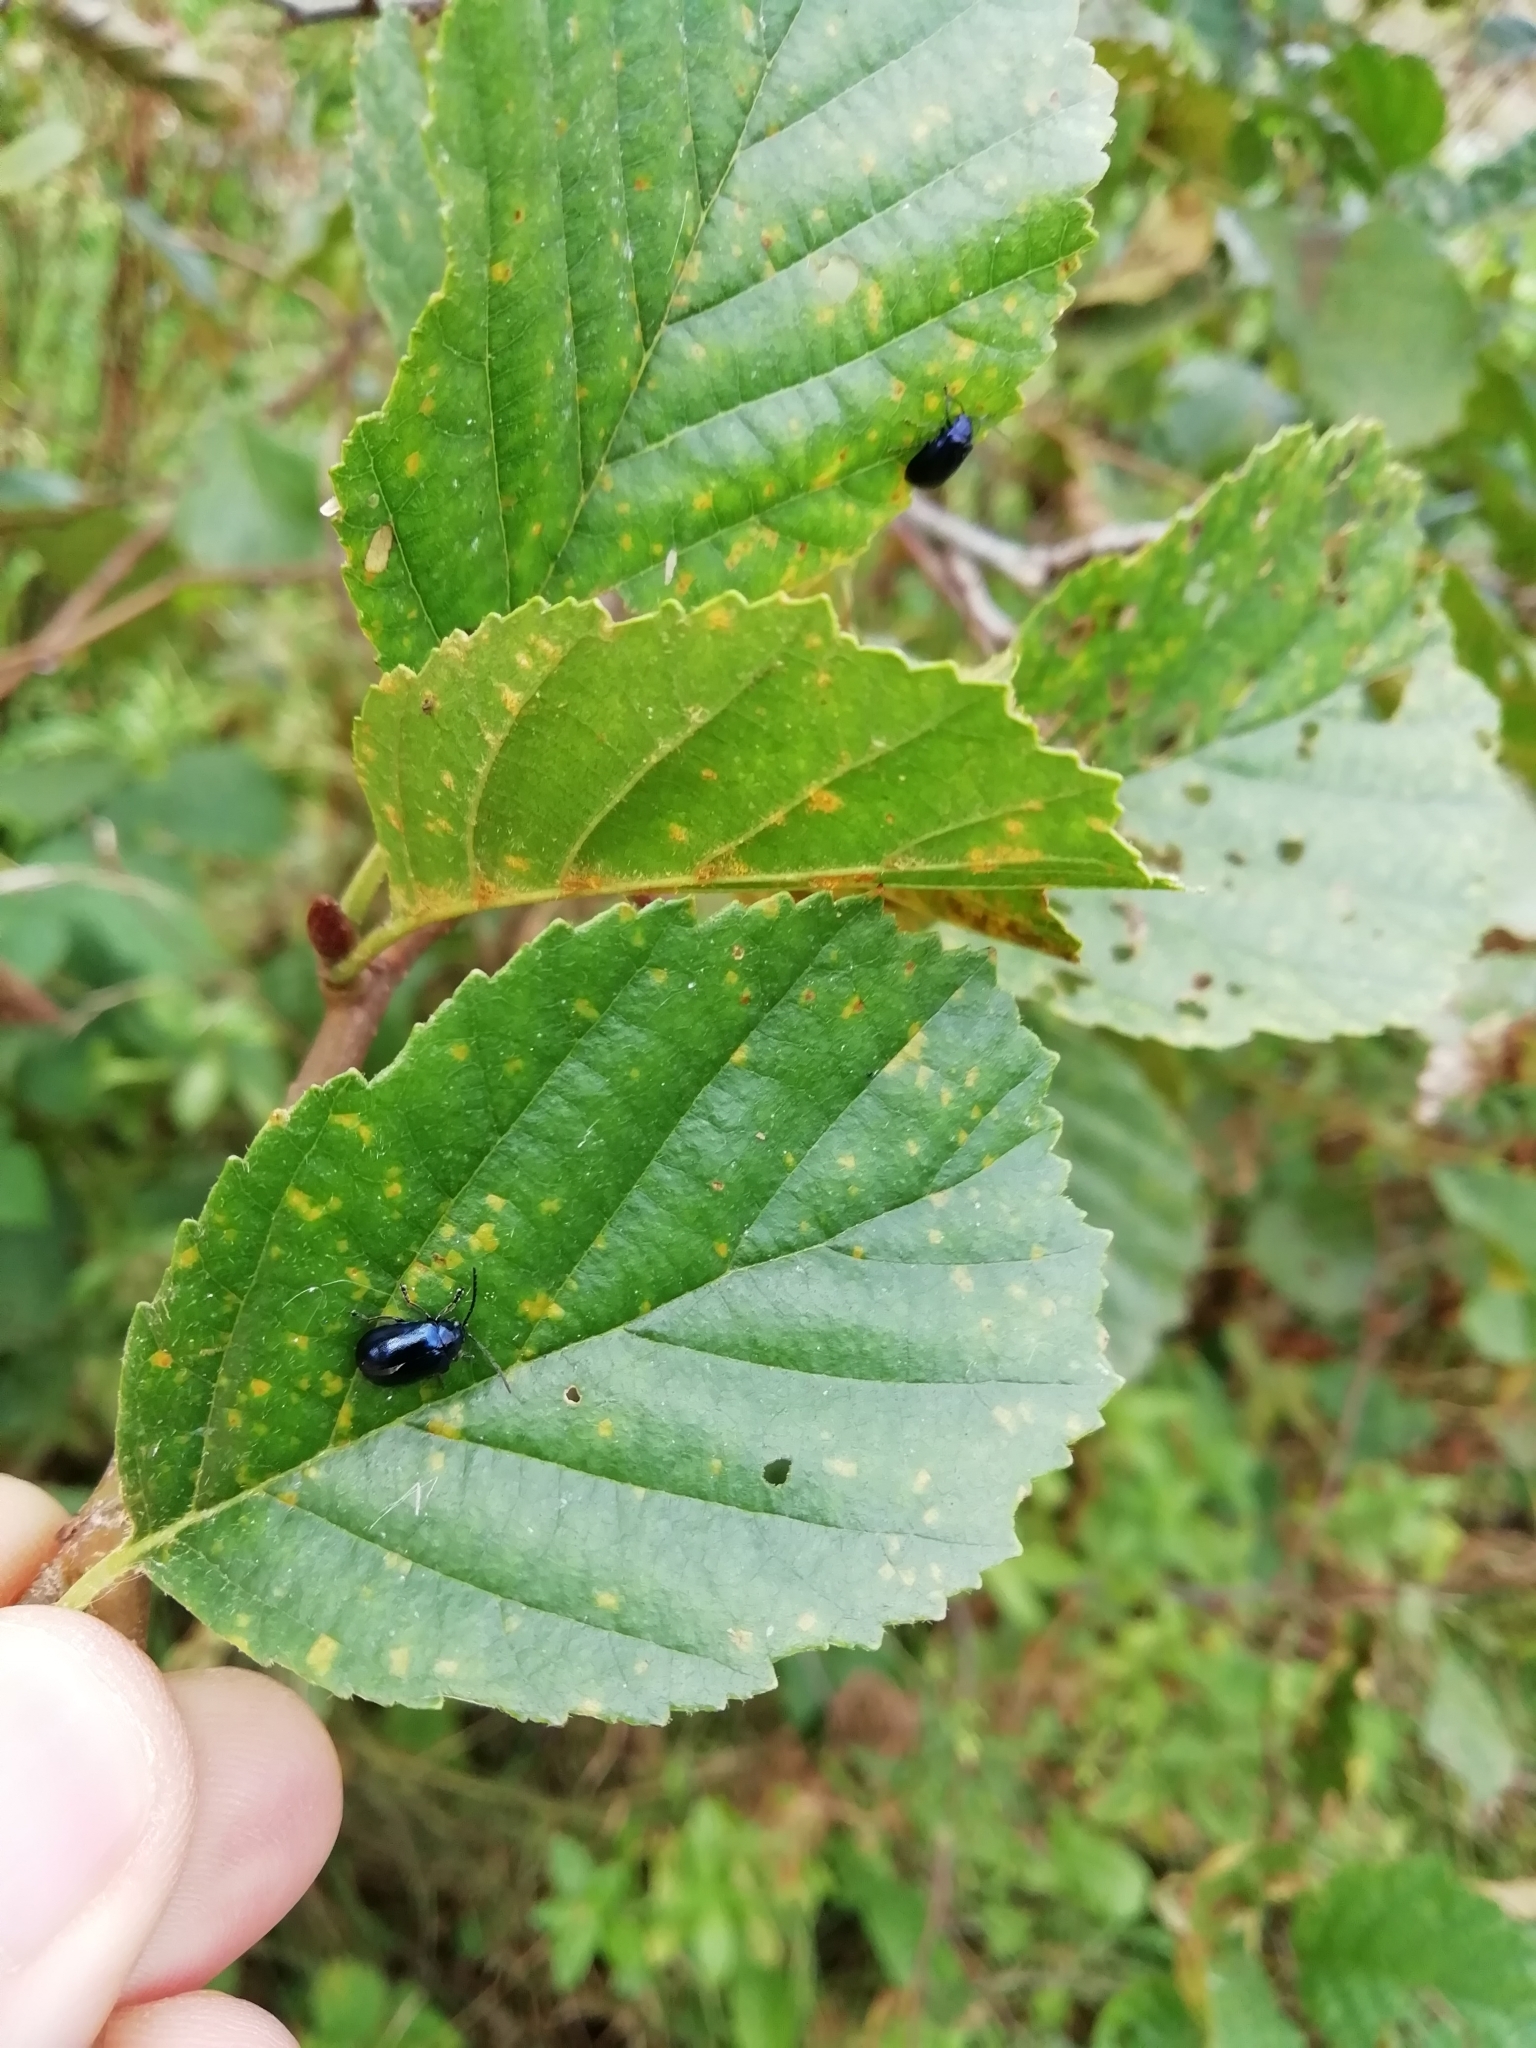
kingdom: Animalia
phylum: Arthropoda
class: Insecta
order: Coleoptera
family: Chrysomelidae
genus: Agelastica
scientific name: Agelastica alni
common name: Alder leaf beetle
